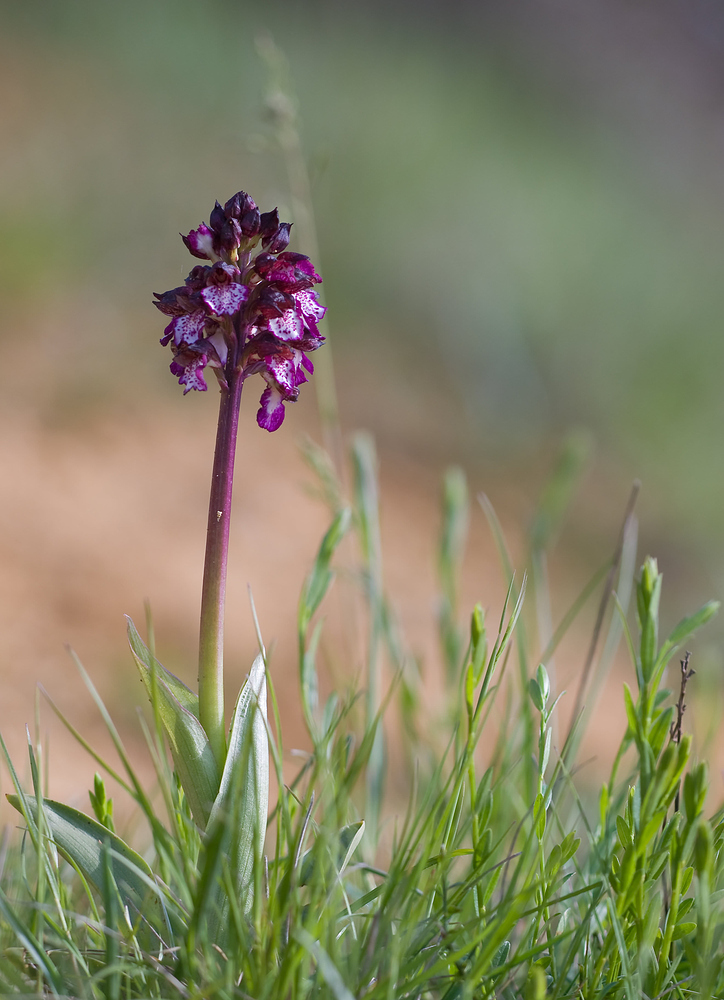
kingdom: Plantae
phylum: Tracheophyta
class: Liliopsida
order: Asparagales
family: Orchidaceae
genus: Orchis
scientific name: Orchis purpurea
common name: Lady orchid
